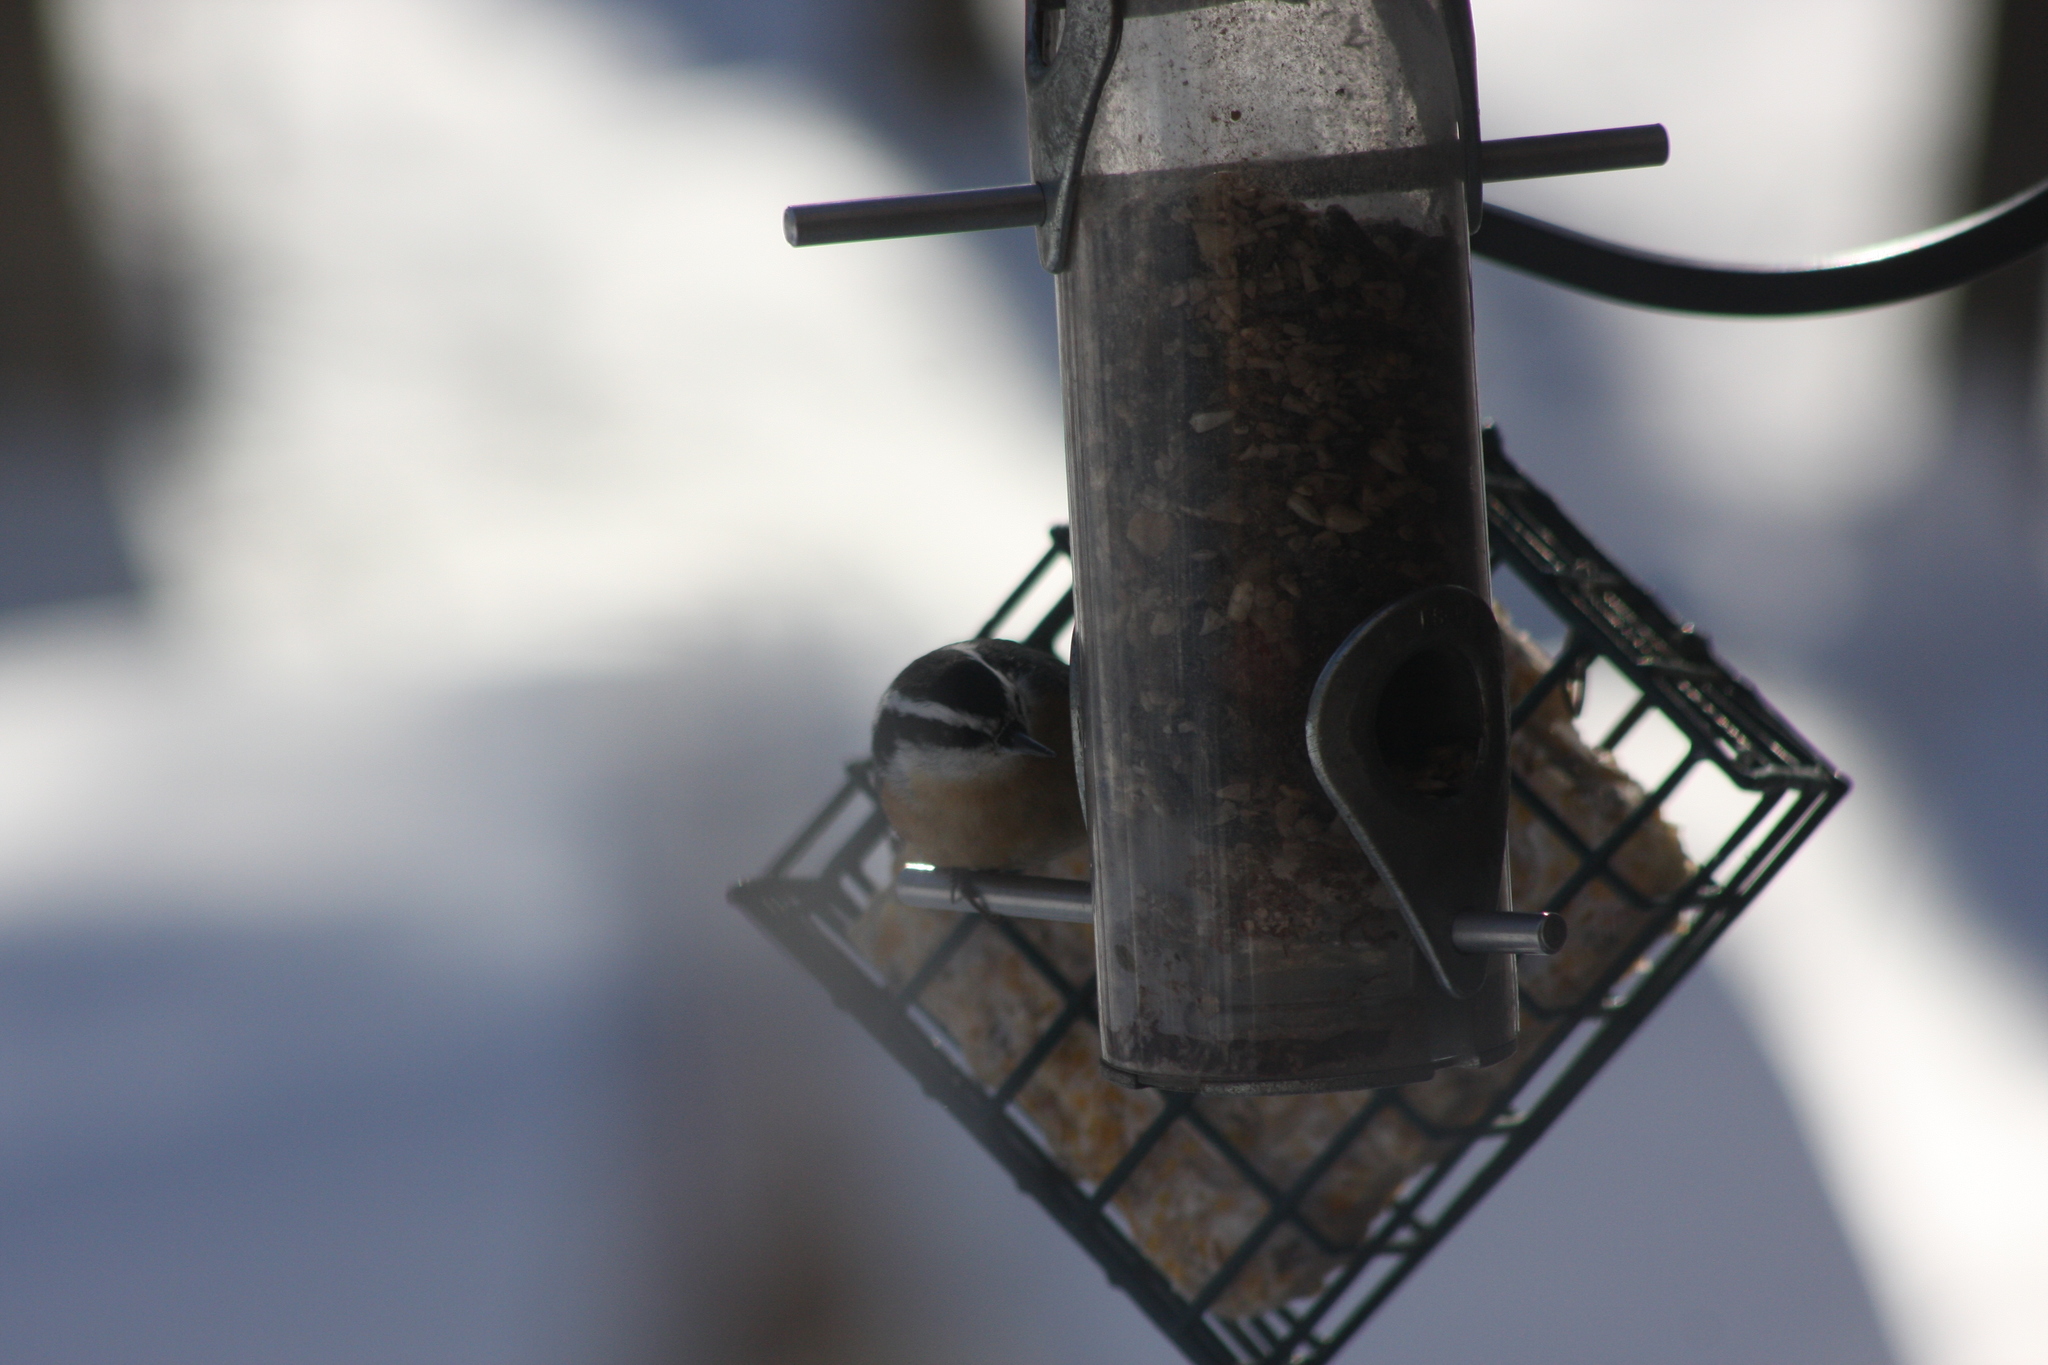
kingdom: Animalia
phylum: Chordata
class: Aves
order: Passeriformes
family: Sittidae
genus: Sitta
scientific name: Sitta canadensis
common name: Red-breasted nuthatch
